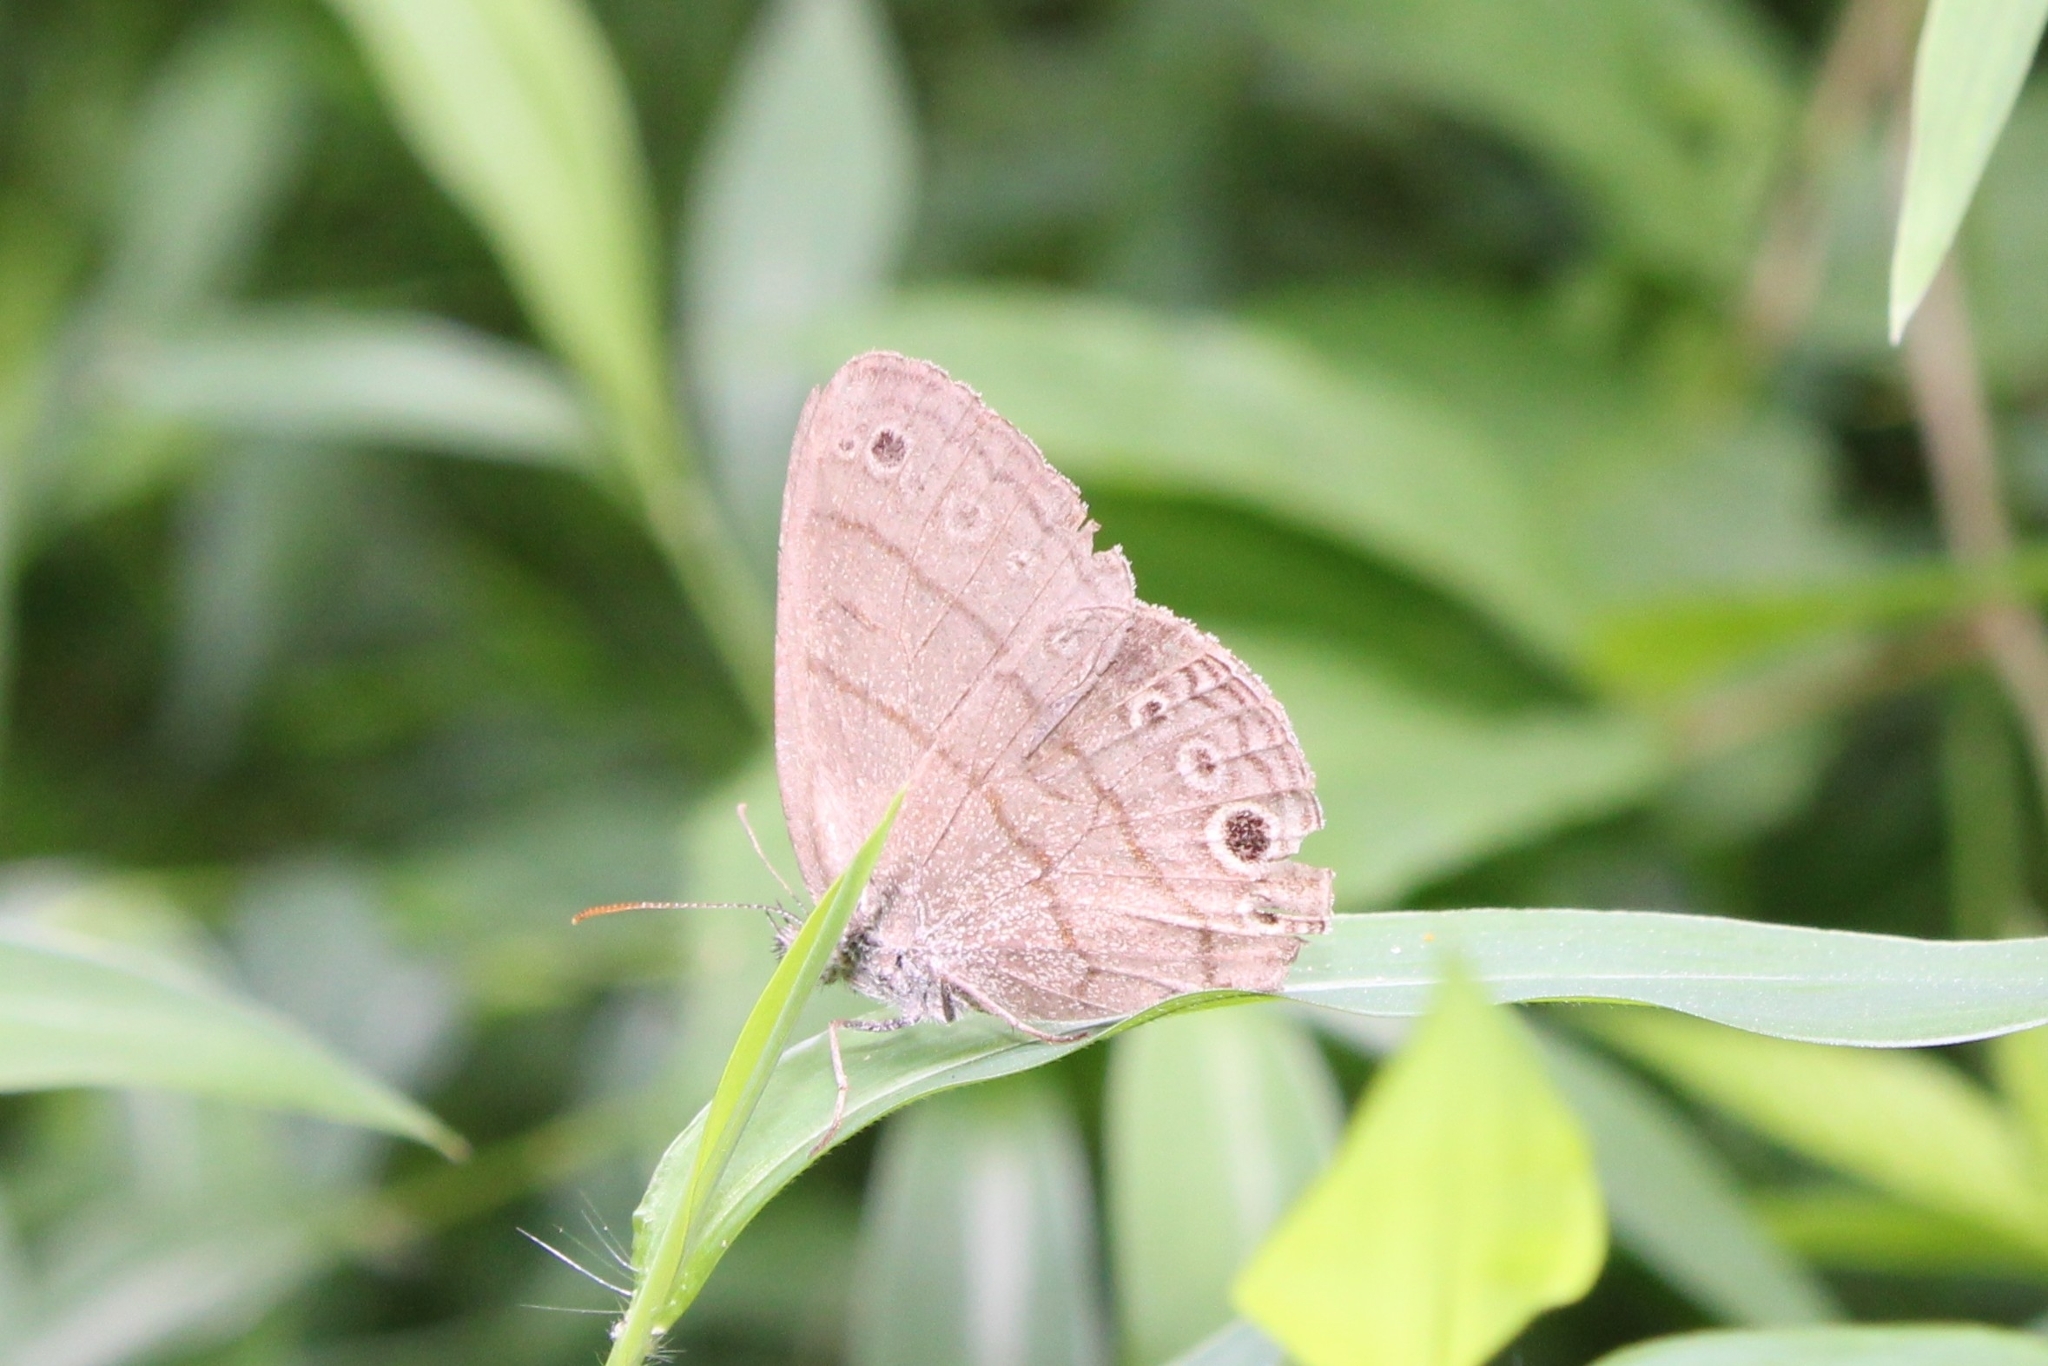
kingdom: Animalia
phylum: Arthropoda
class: Insecta
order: Lepidoptera
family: Nymphalidae
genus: Hermeuptychia
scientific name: Hermeuptychia hermes
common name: Hermes satyr
